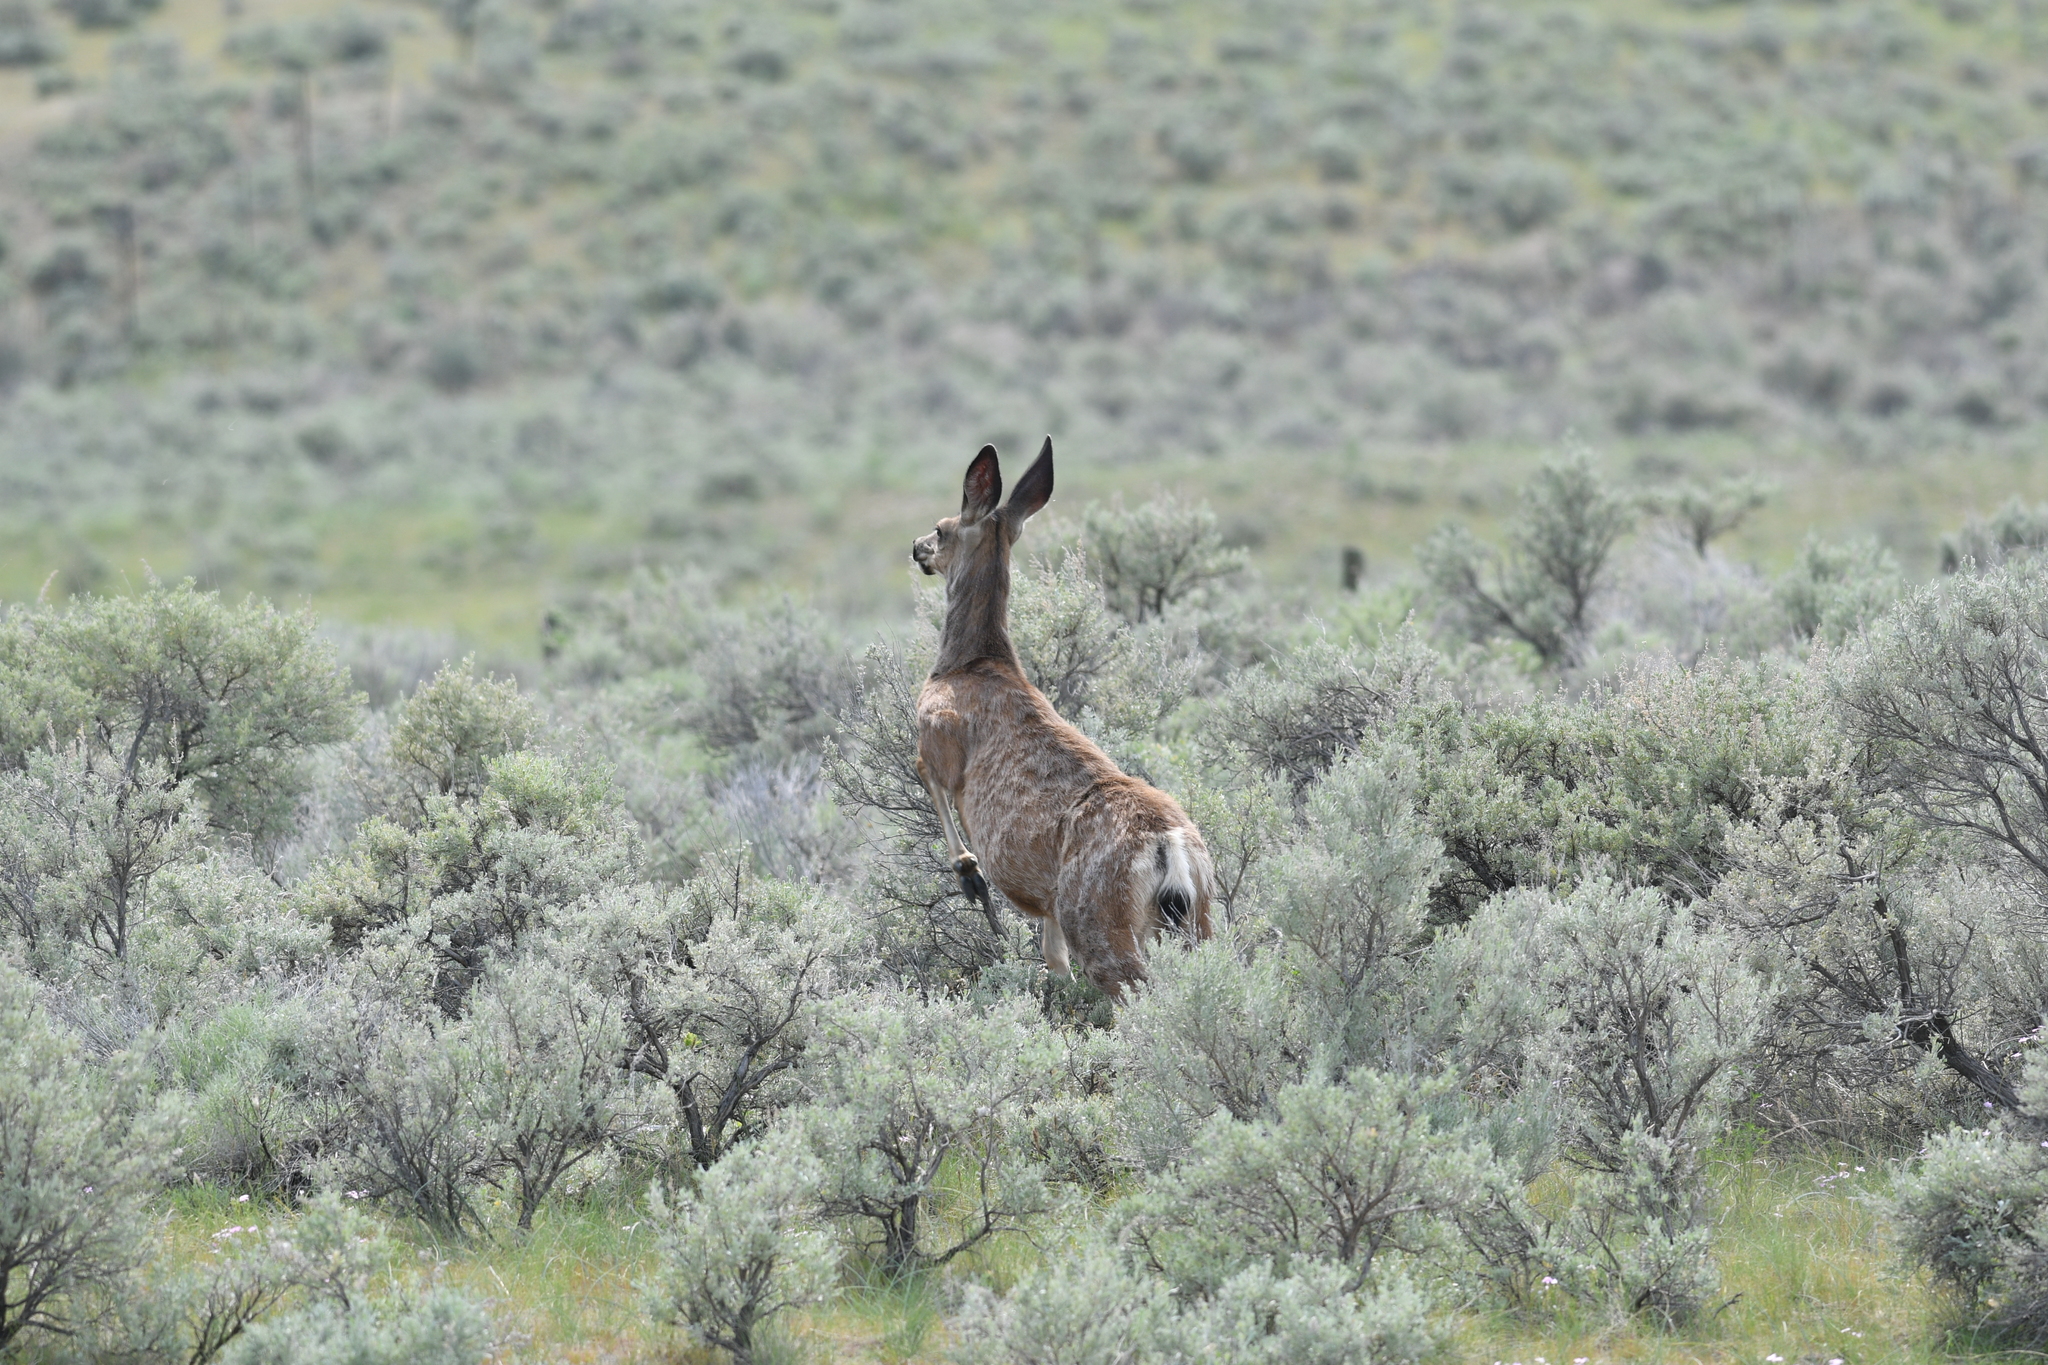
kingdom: Animalia
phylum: Chordata
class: Mammalia
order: Artiodactyla
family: Cervidae
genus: Odocoileus
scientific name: Odocoileus hemionus
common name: Mule deer
